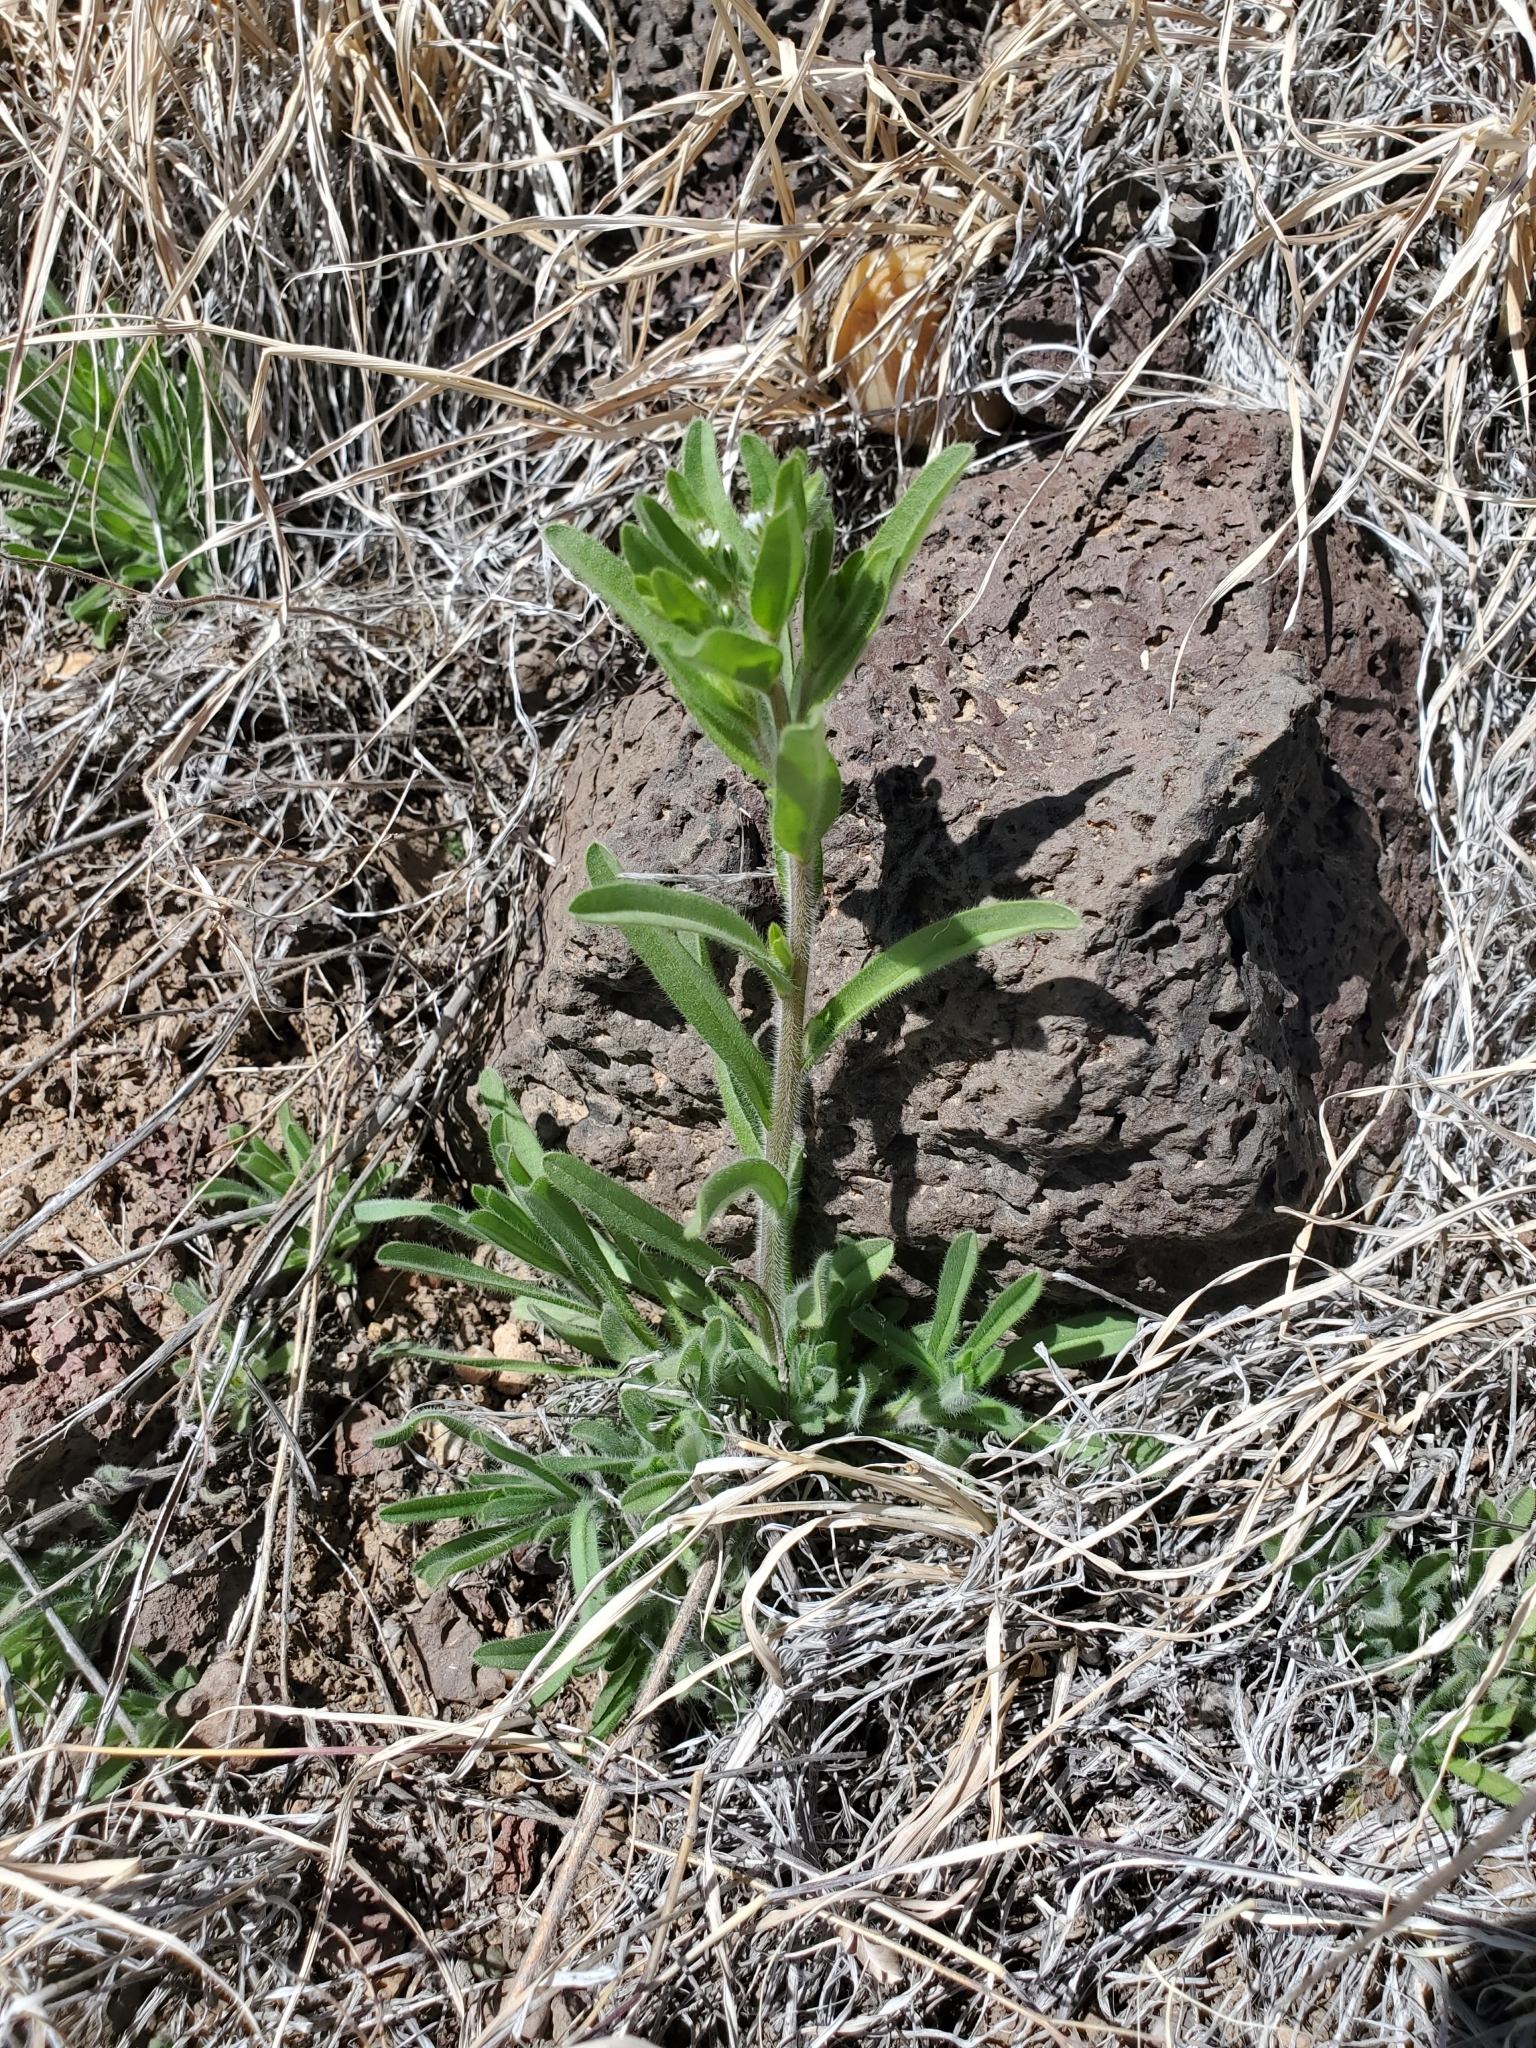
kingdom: Plantae
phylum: Tracheophyta
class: Magnoliopsida
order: Boraginales
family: Boraginaceae
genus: Lappula
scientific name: Lappula occidentalis
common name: Western stickseed
